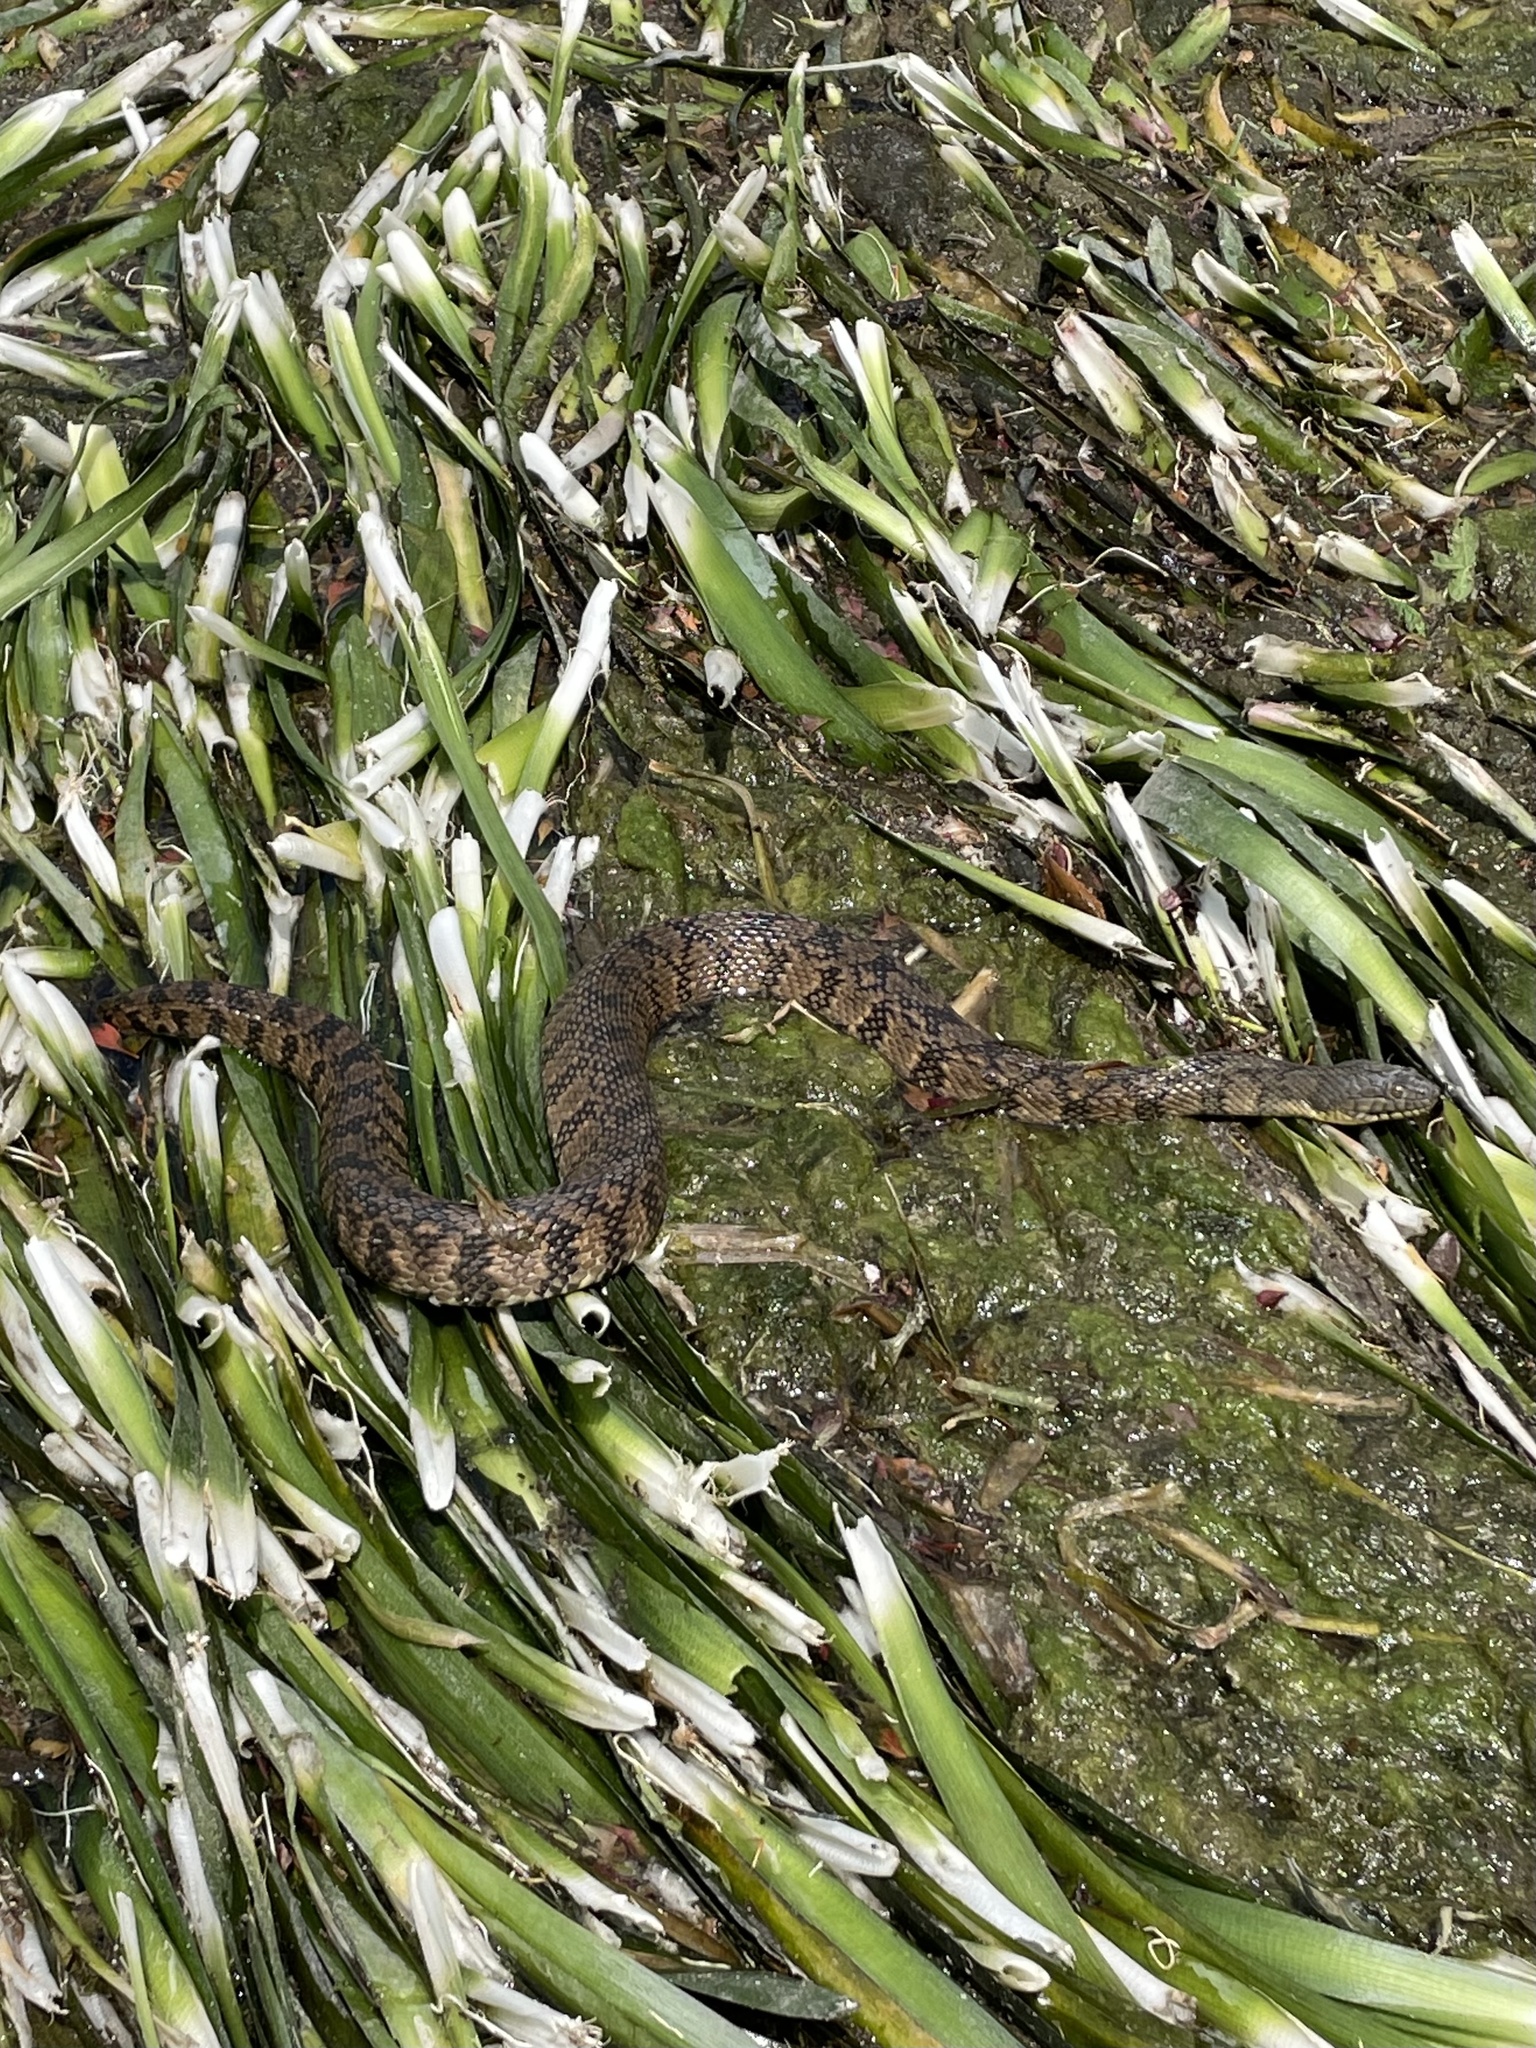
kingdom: Animalia
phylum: Chordata
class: Squamata
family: Colubridae
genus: Nerodia
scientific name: Nerodia rhombifer
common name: Diamondback water snake
